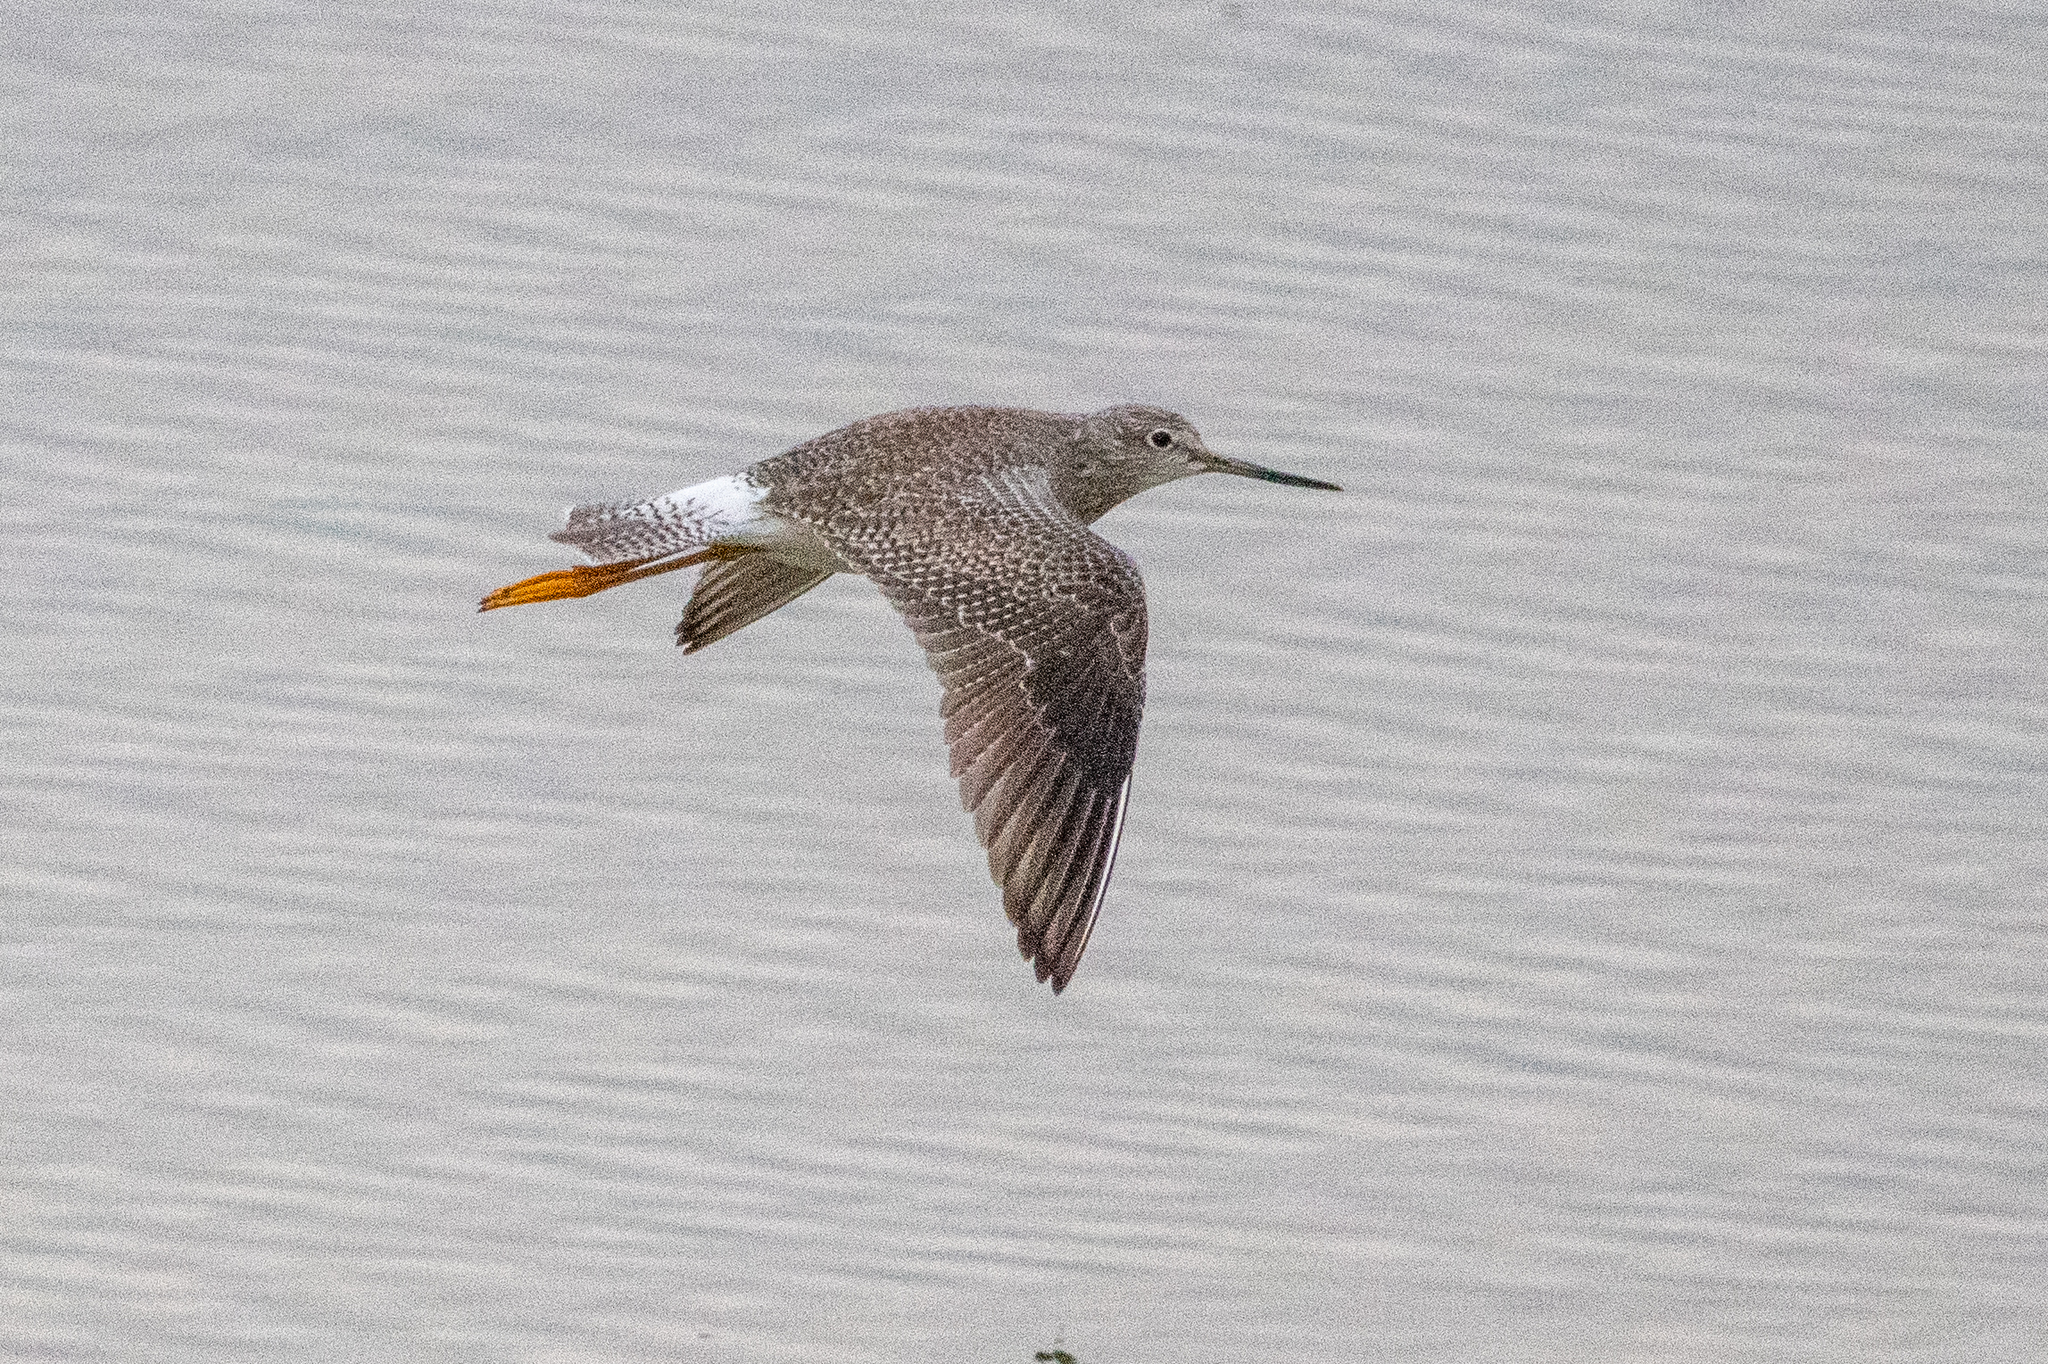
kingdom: Animalia
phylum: Chordata
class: Aves
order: Charadriiformes
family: Scolopacidae
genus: Tringa
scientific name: Tringa melanoleuca
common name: Greater yellowlegs
